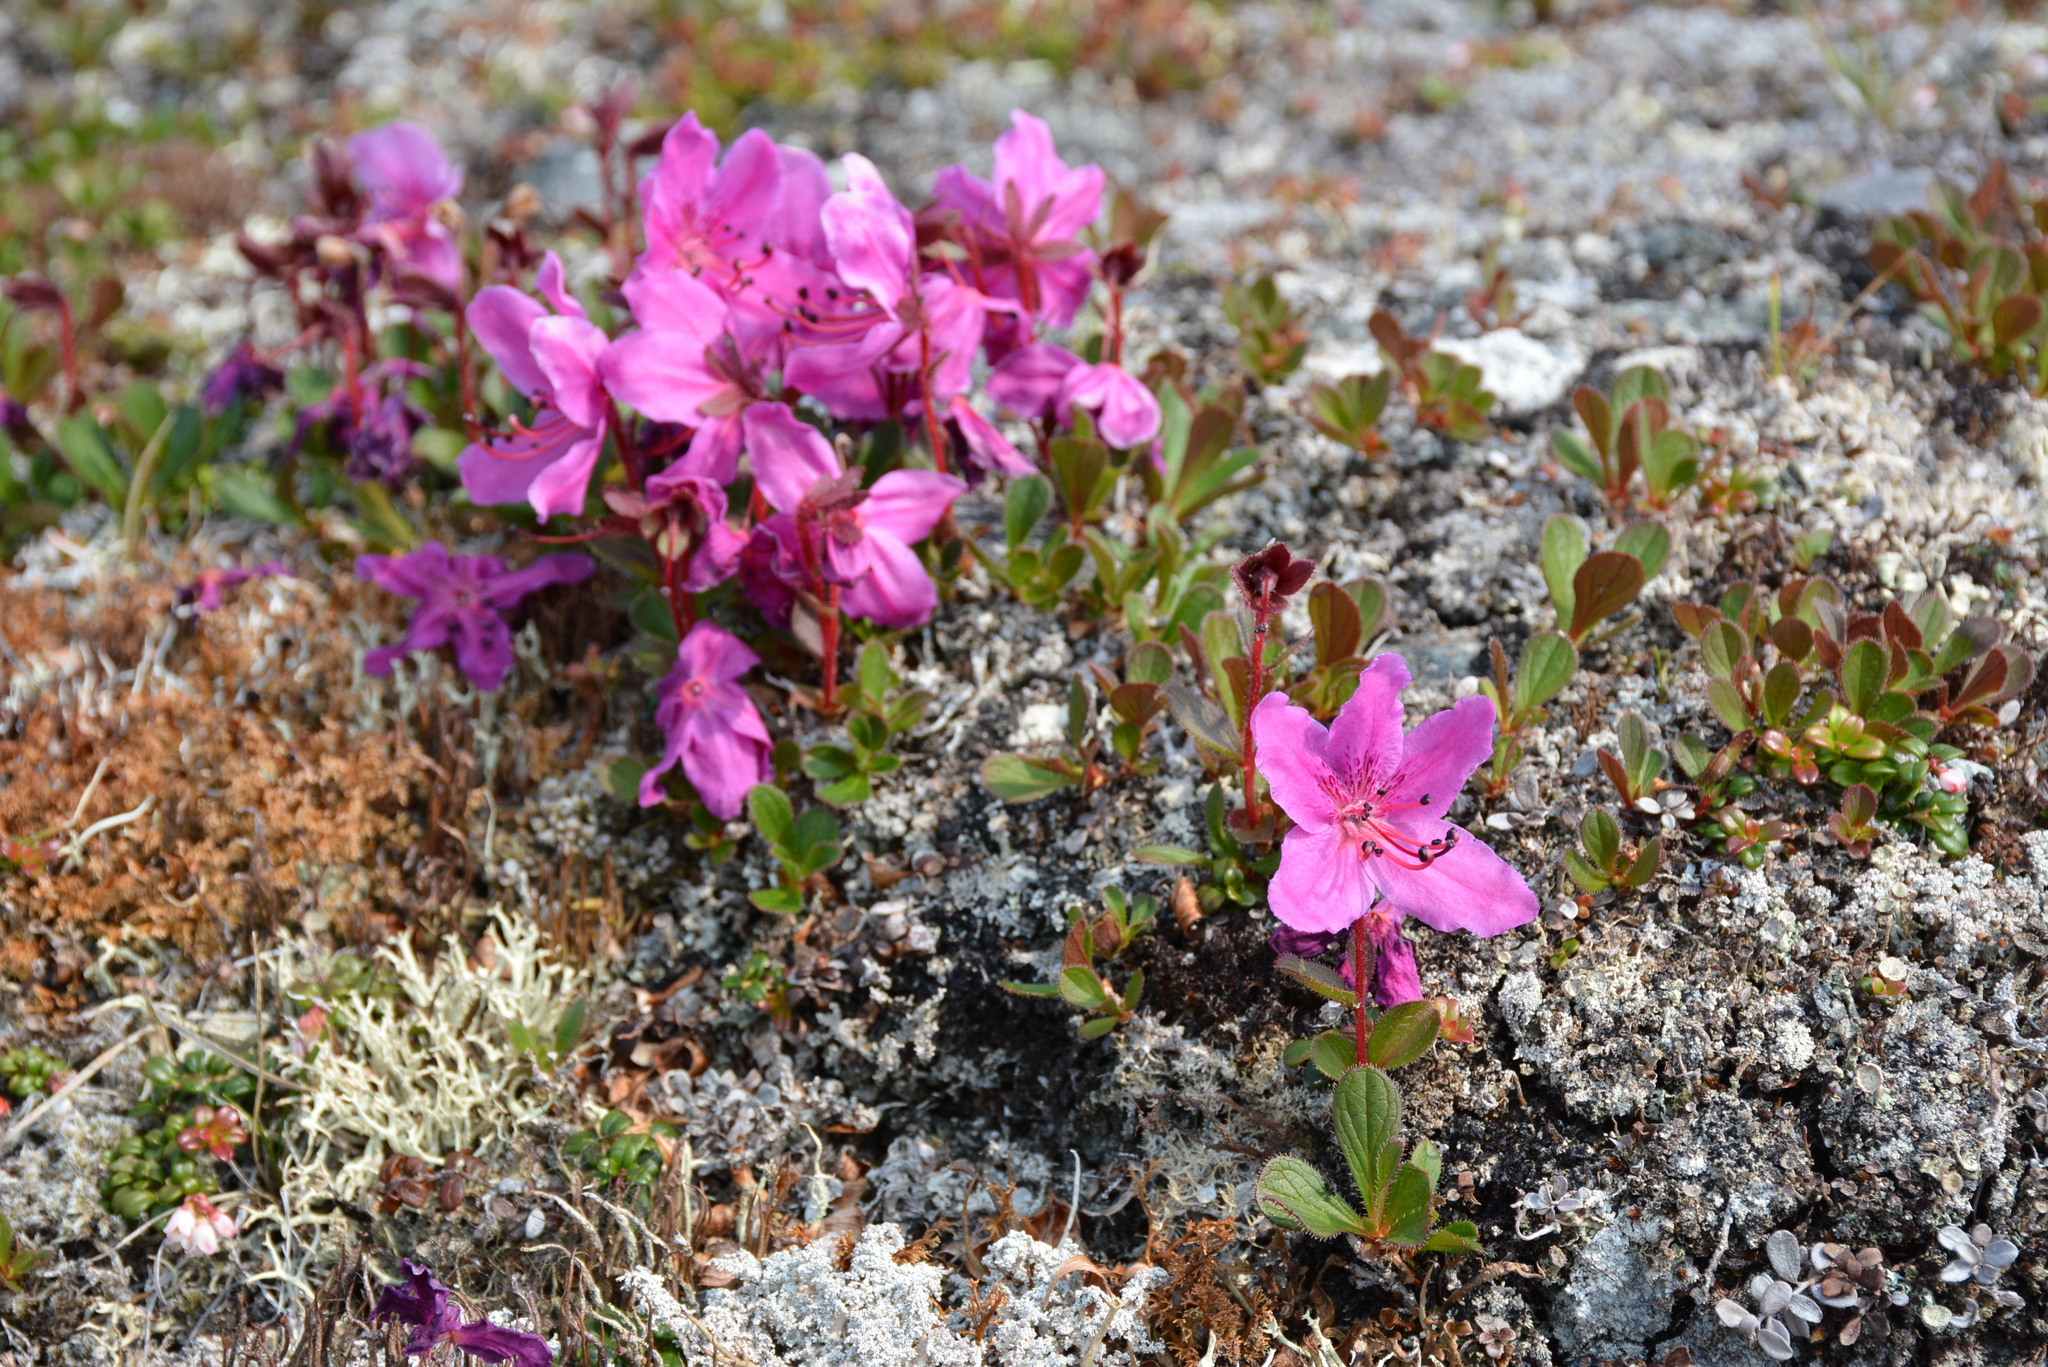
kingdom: Plantae
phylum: Tracheophyta
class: Magnoliopsida
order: Ericales
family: Ericaceae
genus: Rhododendron
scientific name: Rhododendron camtschaticum
